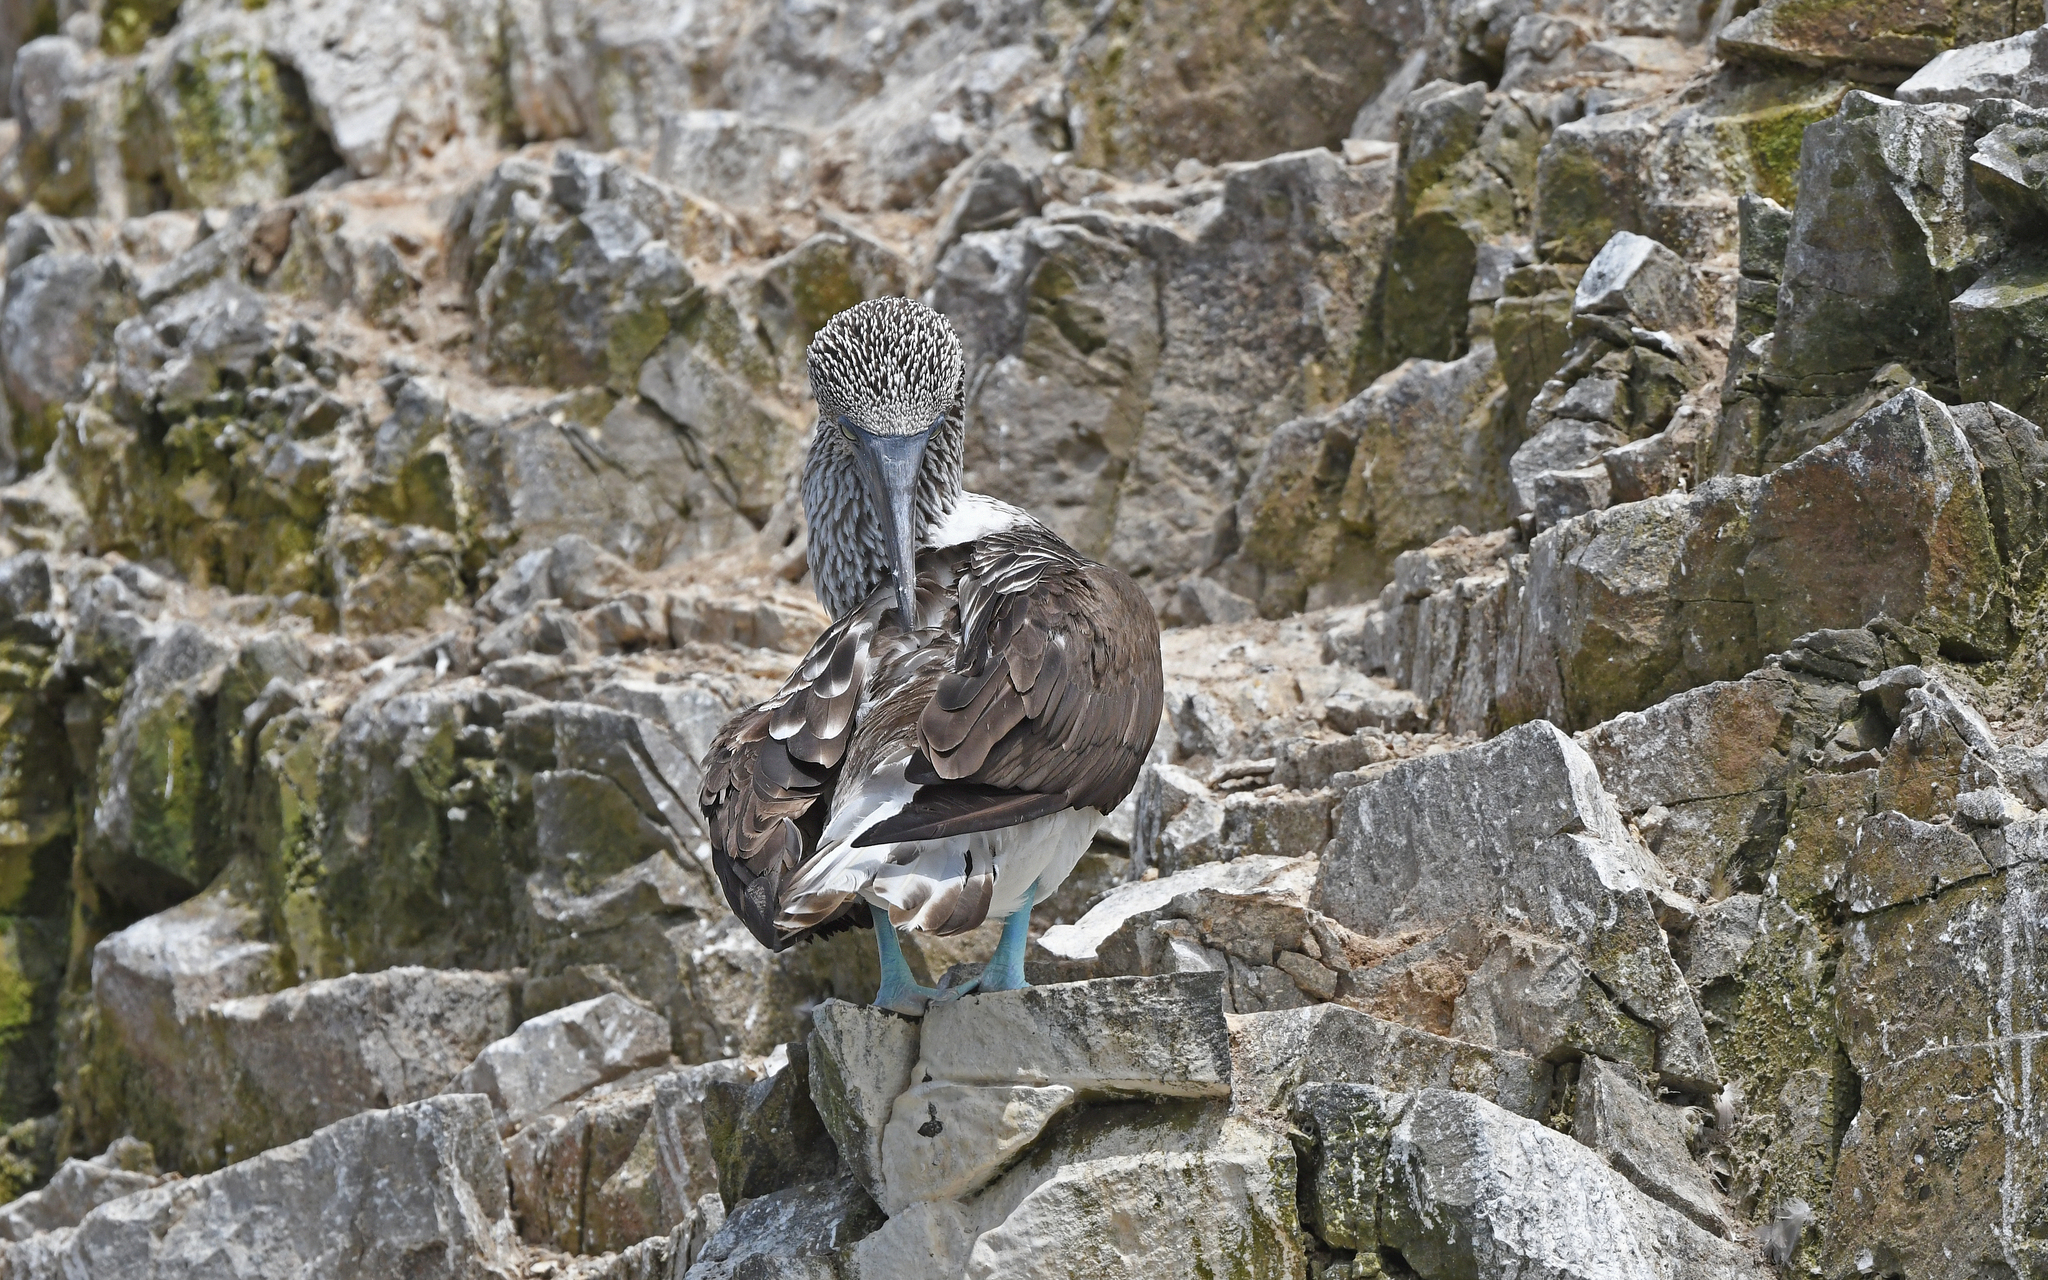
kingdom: Animalia
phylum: Chordata
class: Aves
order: Suliformes
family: Sulidae
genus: Sula
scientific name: Sula nebouxii
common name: Blue-footed booby
